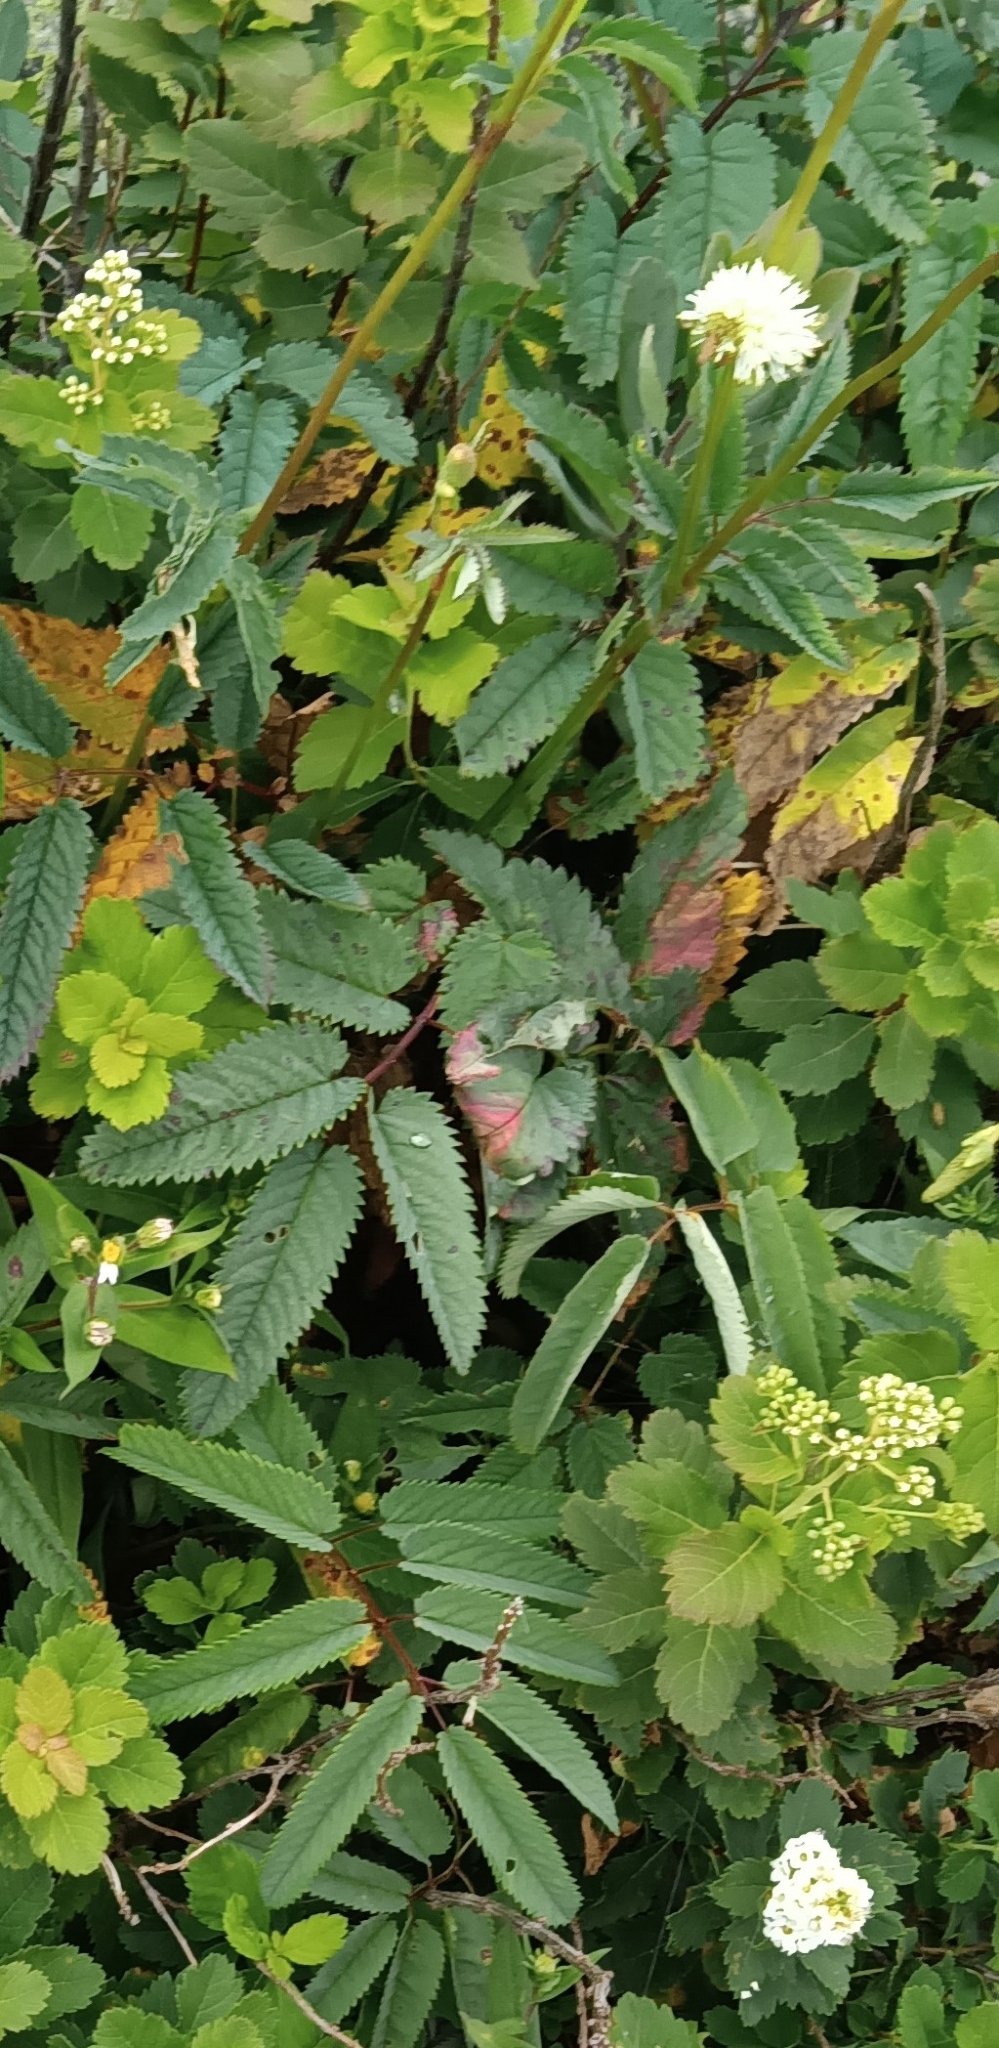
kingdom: Plantae
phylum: Tracheophyta
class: Magnoliopsida
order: Rosales
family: Rosaceae
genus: Sanguisorba
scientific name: Sanguisorba canadensis
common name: White burnet
